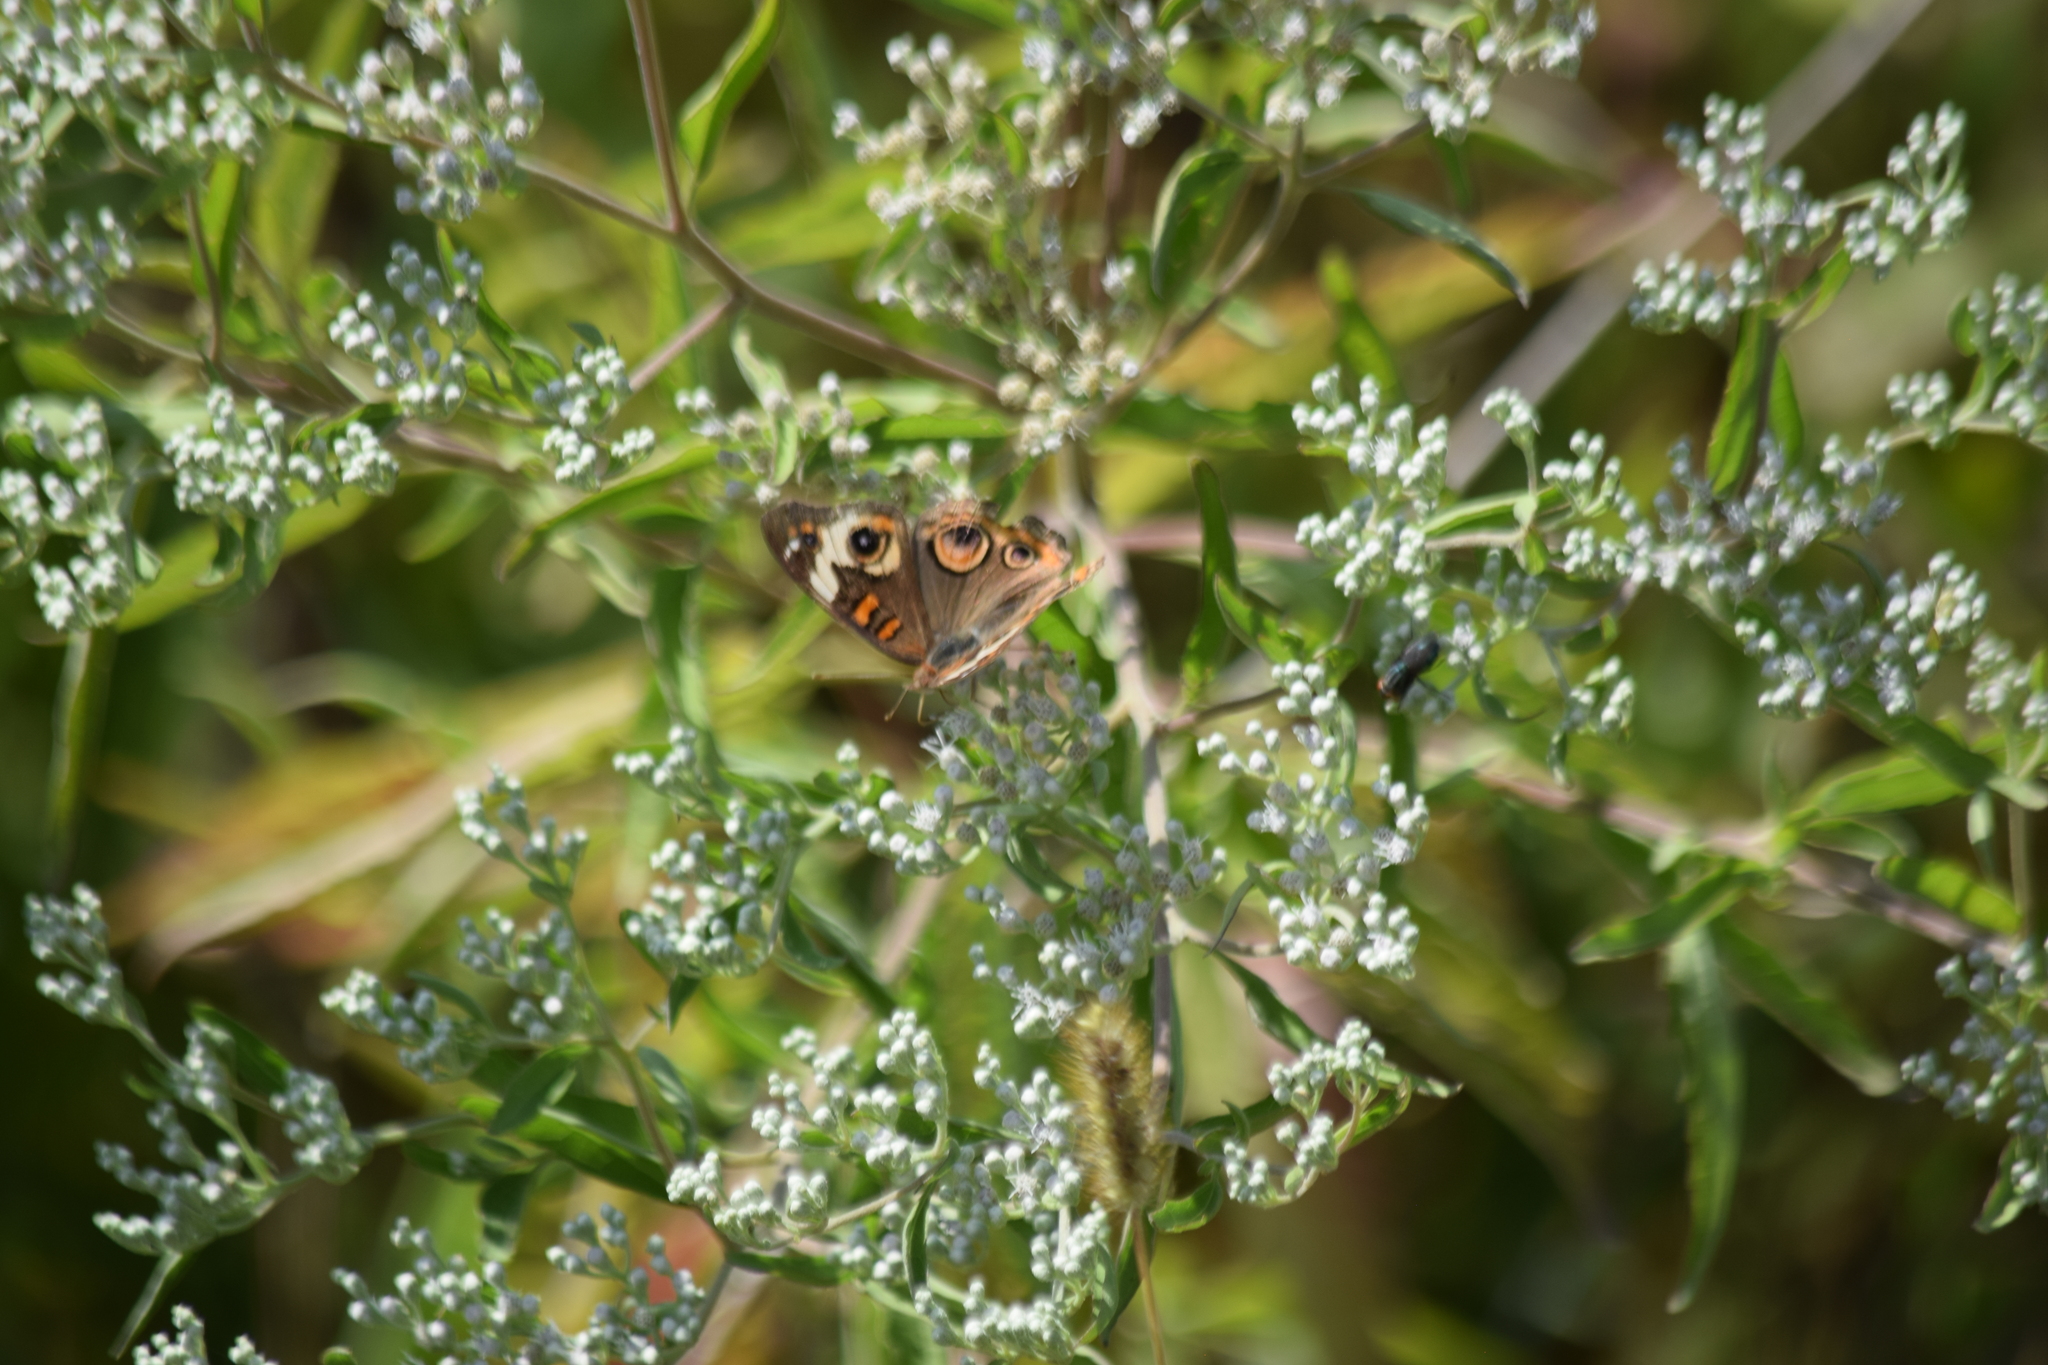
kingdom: Animalia
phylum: Arthropoda
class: Insecta
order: Lepidoptera
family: Nymphalidae
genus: Junonia
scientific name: Junonia coenia
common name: Common buckeye
